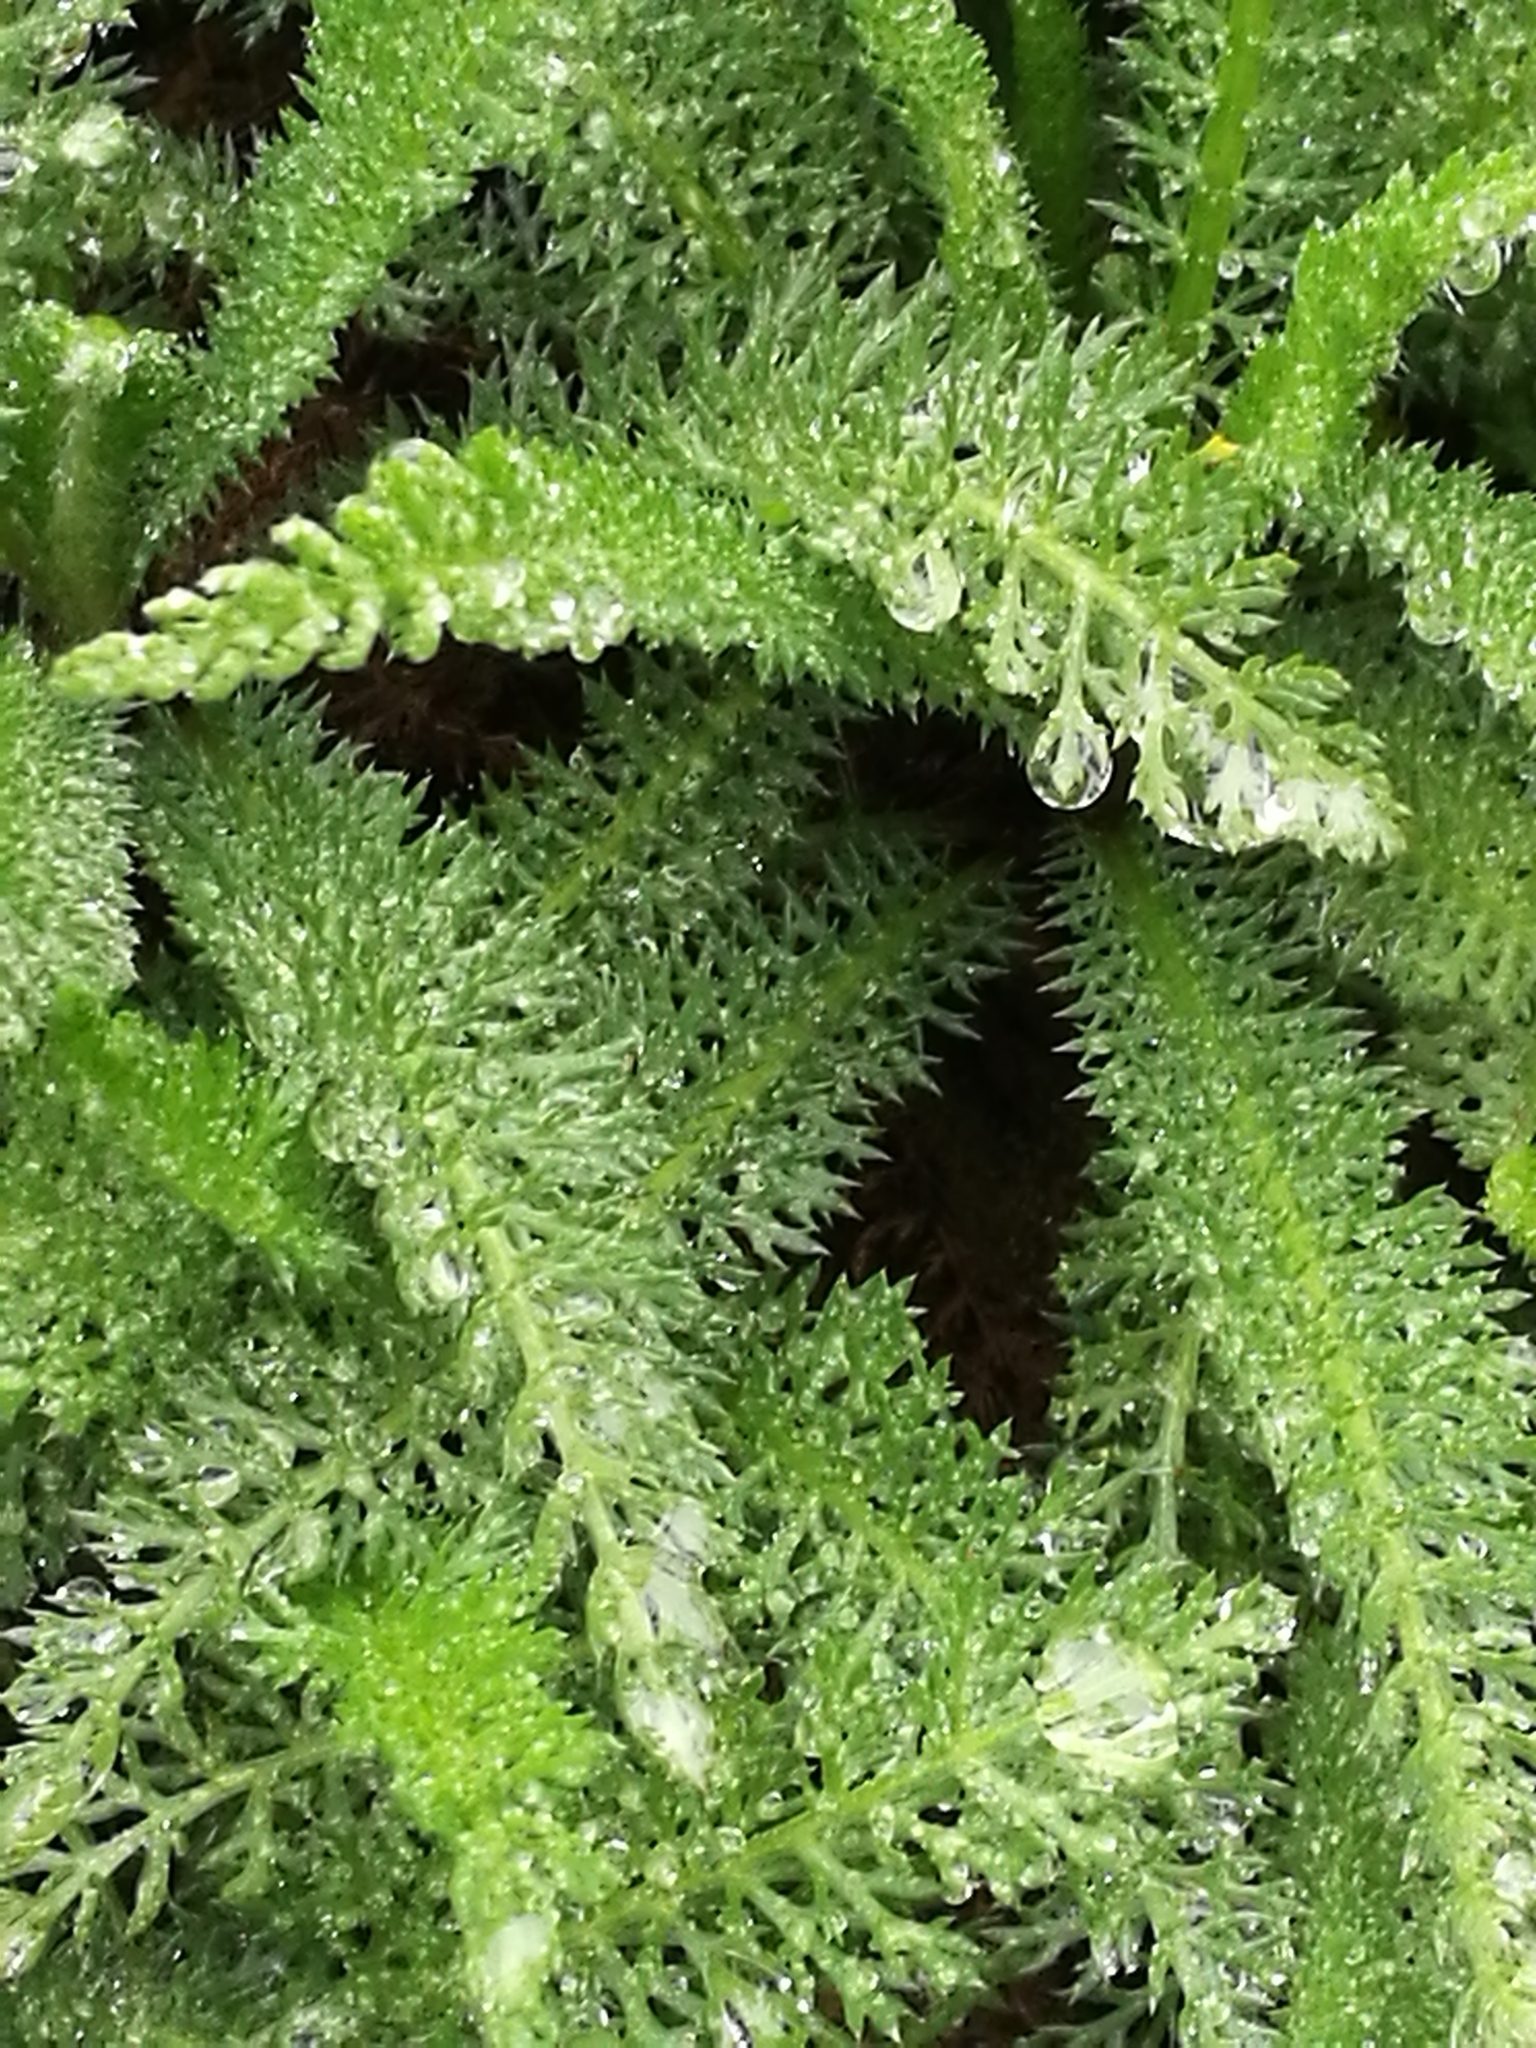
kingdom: Plantae
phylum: Tracheophyta
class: Magnoliopsida
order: Asterales
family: Asteraceae
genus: Achillea
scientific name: Achillea millefolium
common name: Yarrow
